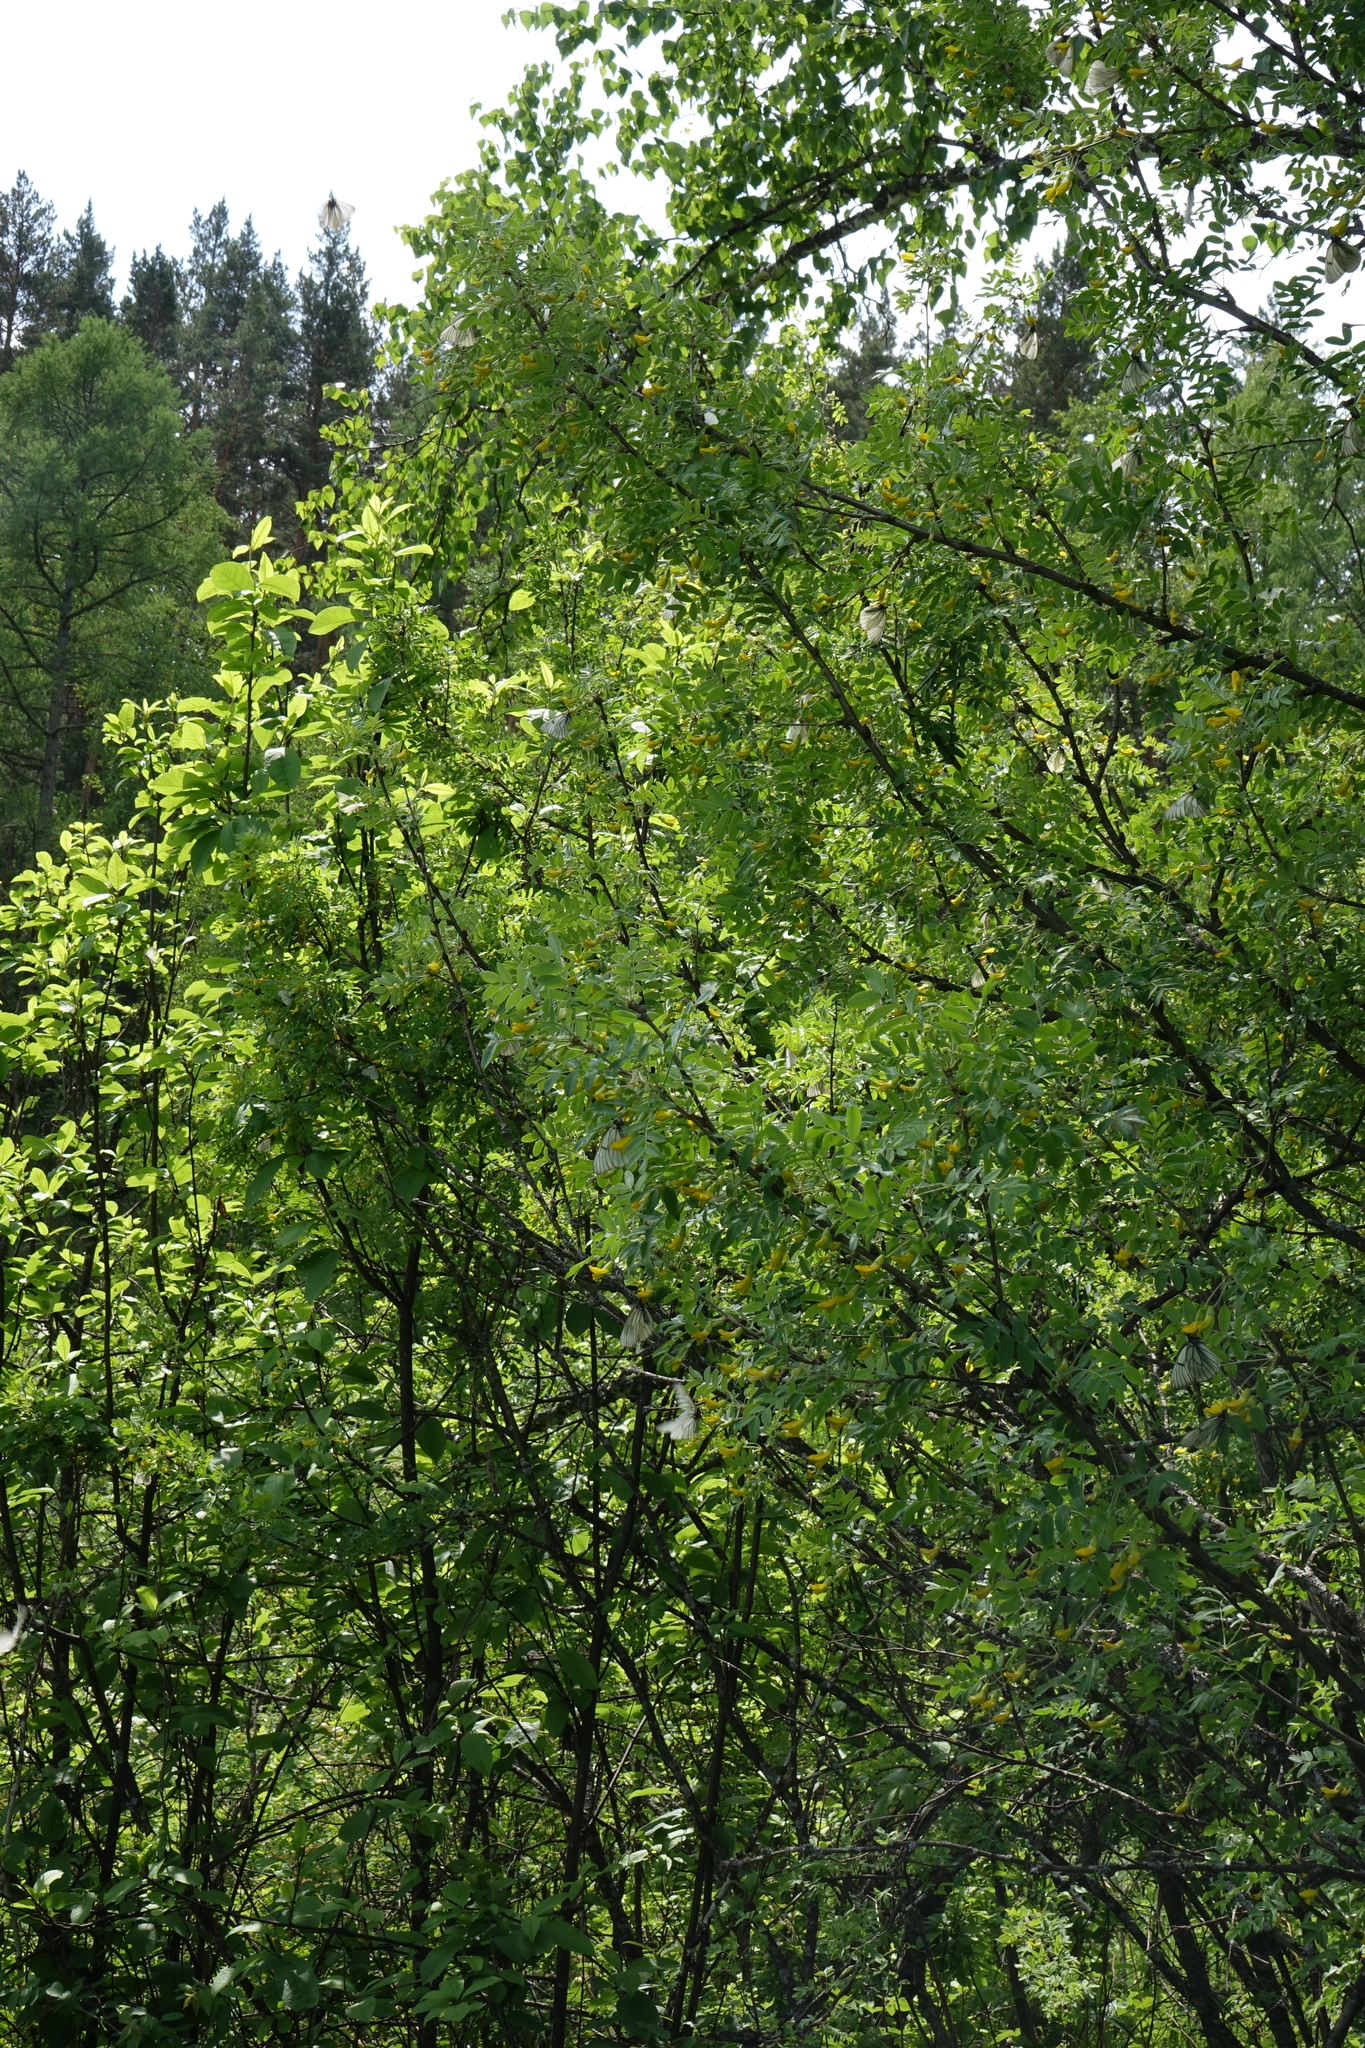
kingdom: Plantae
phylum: Tracheophyta
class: Magnoliopsida
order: Fabales
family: Fabaceae
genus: Caragana
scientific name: Caragana arborescens
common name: Siberian peashrub
